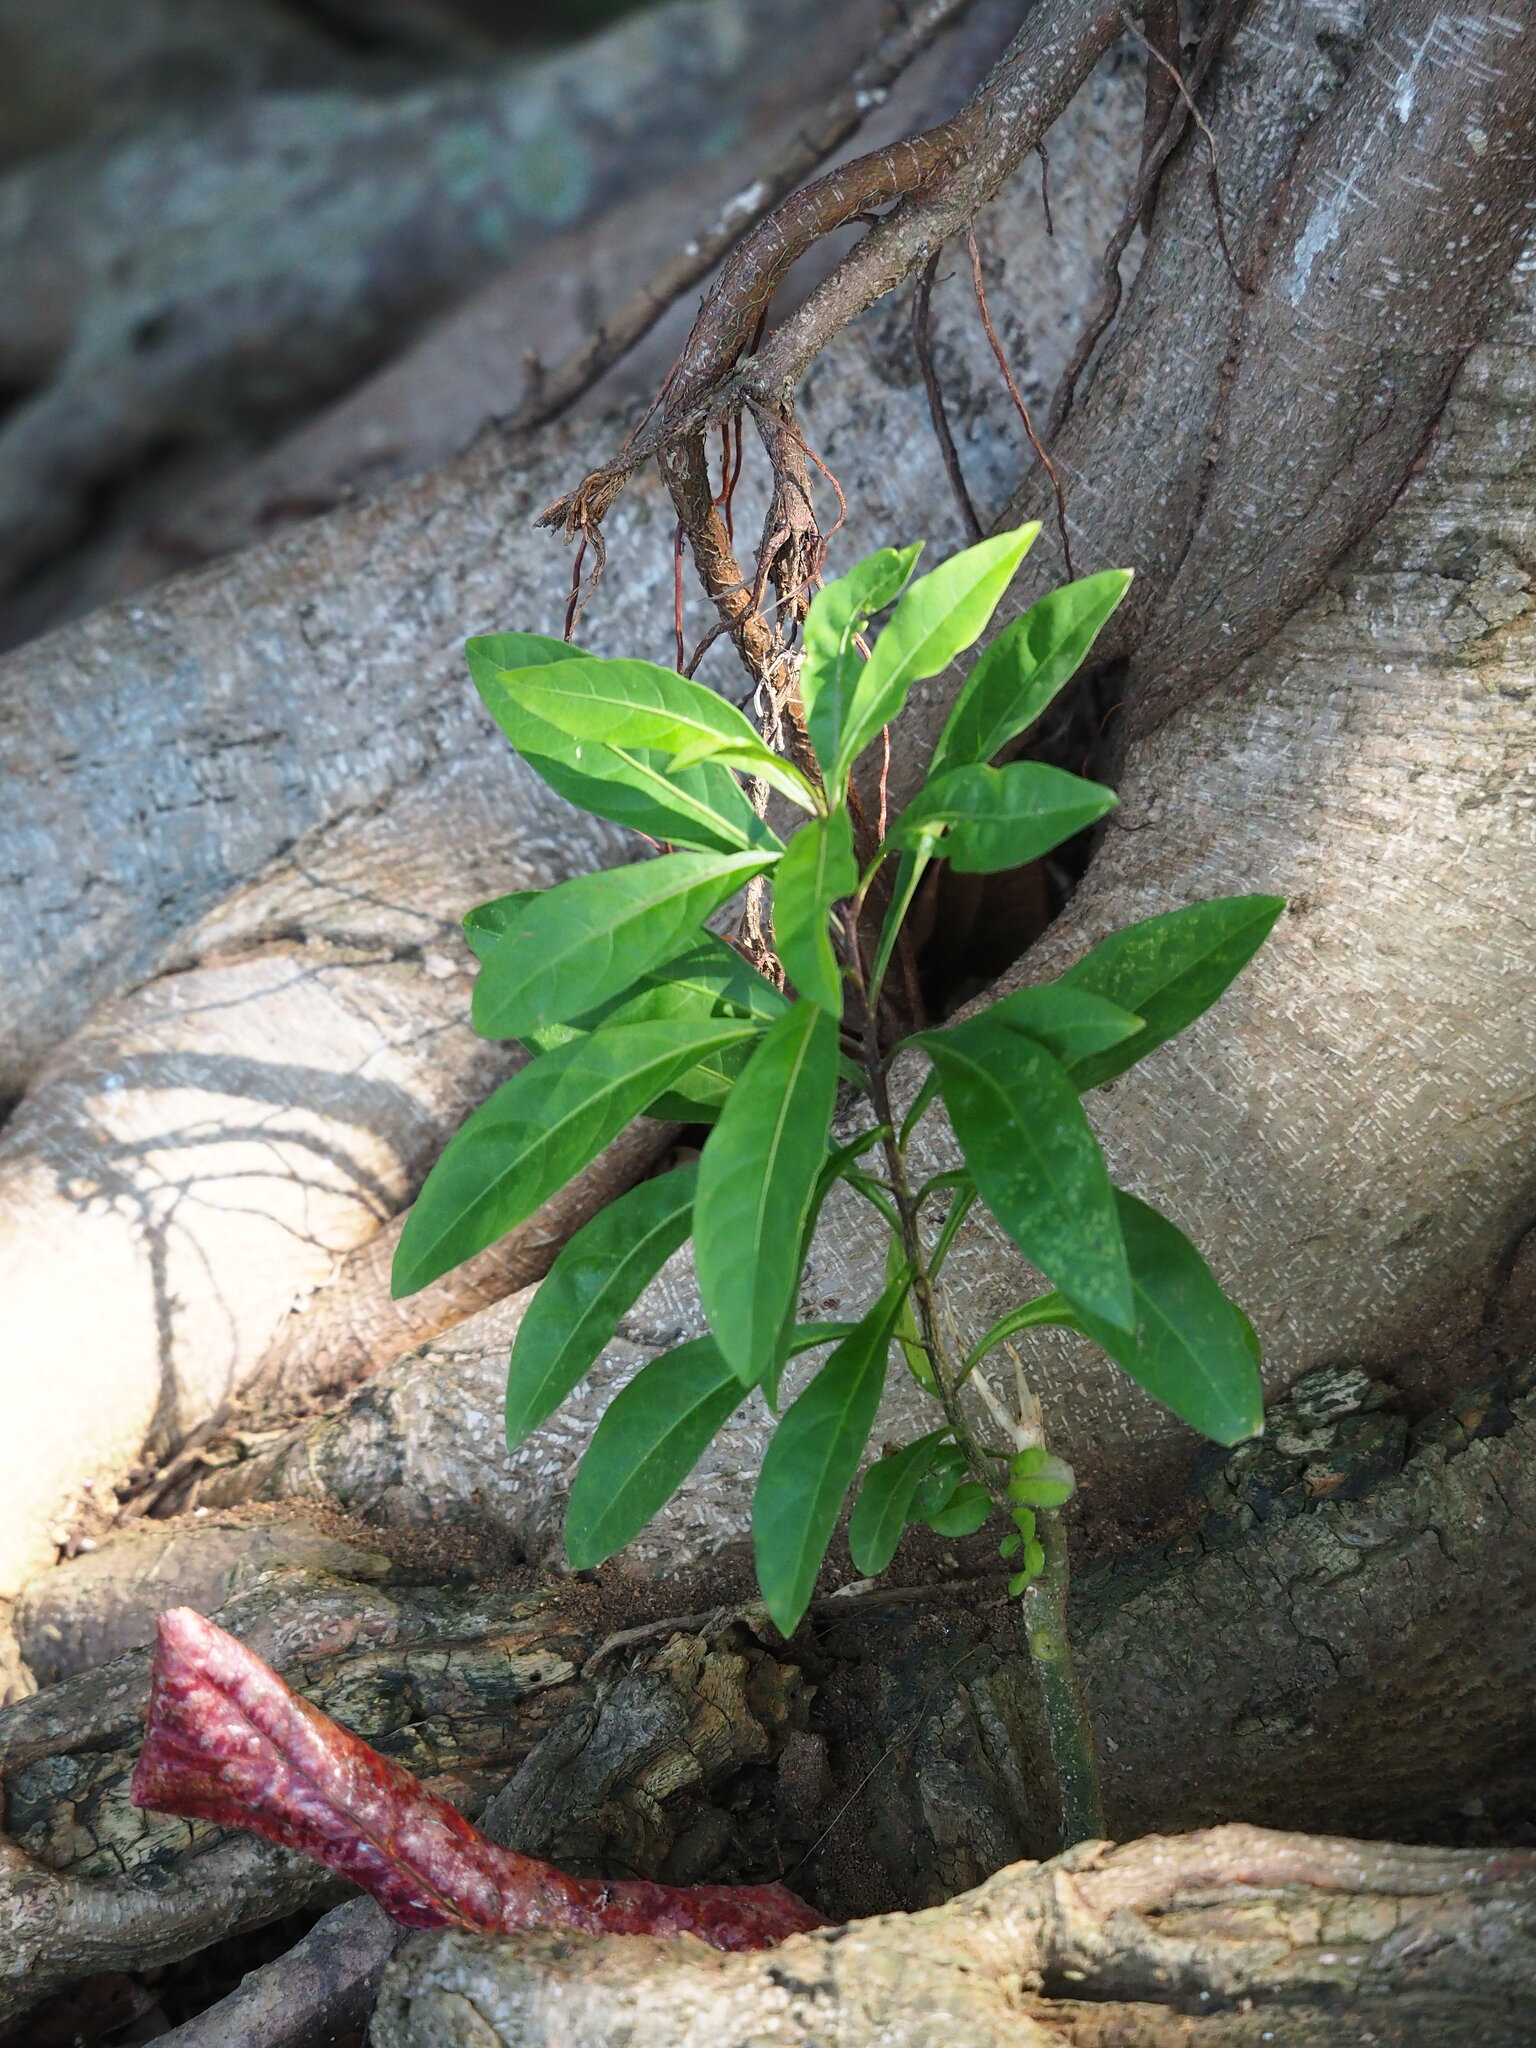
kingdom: Plantae
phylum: Tracheophyta
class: Magnoliopsida
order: Solanales
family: Solanaceae
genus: Solanum
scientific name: Solanum diphyllum
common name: Twoleaf nightshade
